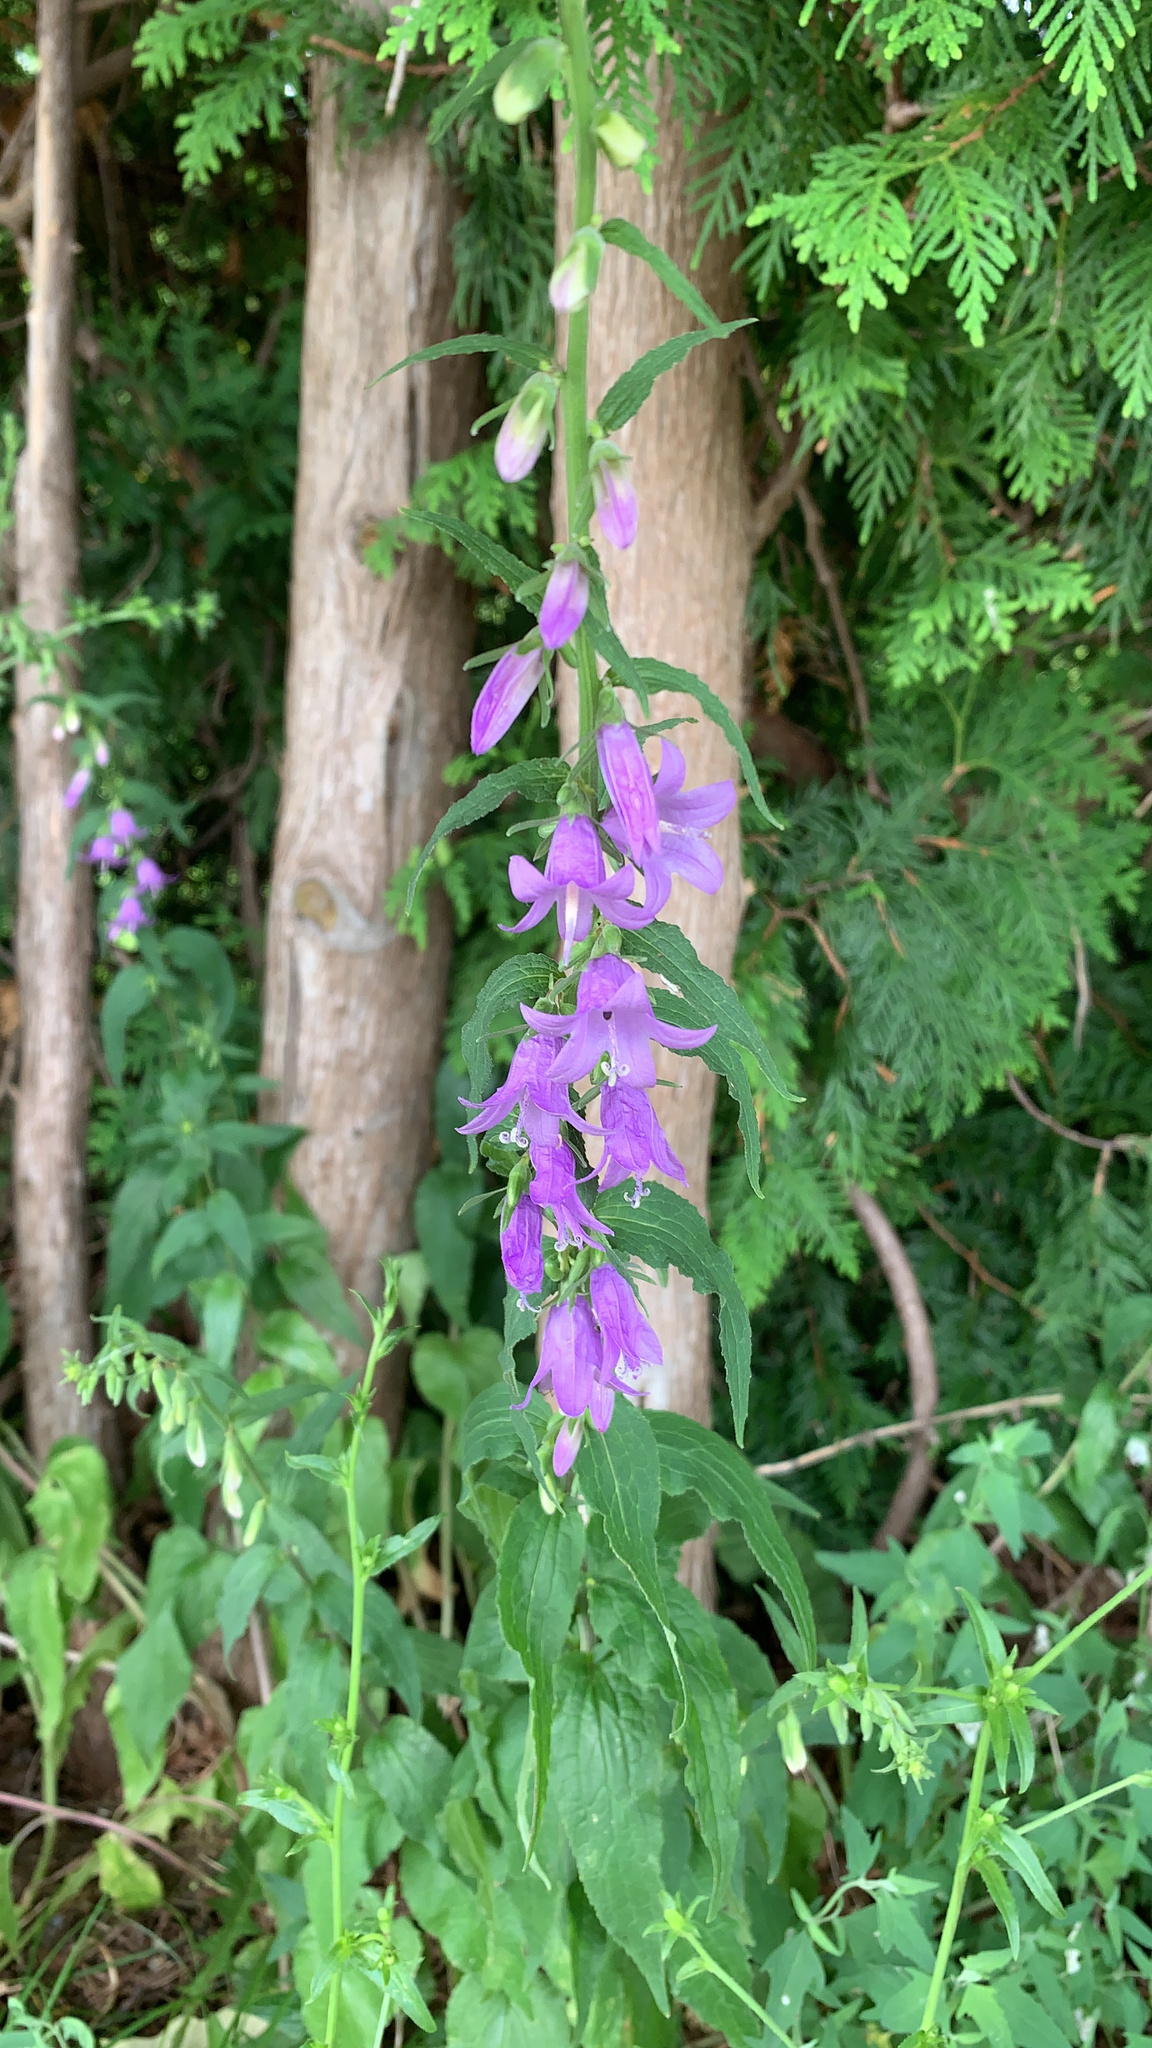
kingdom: Plantae
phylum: Tracheophyta
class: Magnoliopsida
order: Asterales
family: Campanulaceae
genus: Campanula
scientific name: Campanula rapunculoides
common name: Creeping bellflower
